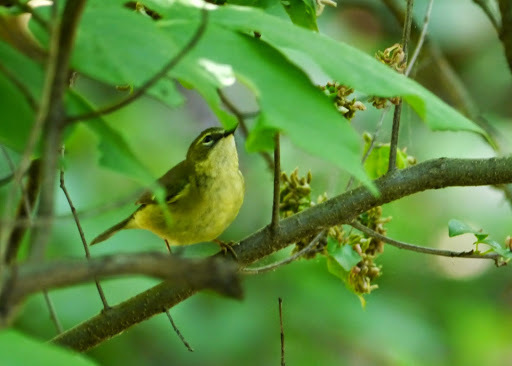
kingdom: Animalia
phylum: Chordata
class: Aves
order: Passeriformes
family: Parulidae
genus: Setophaga
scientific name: Setophaga caerulescens
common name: Black-throated blue warbler
